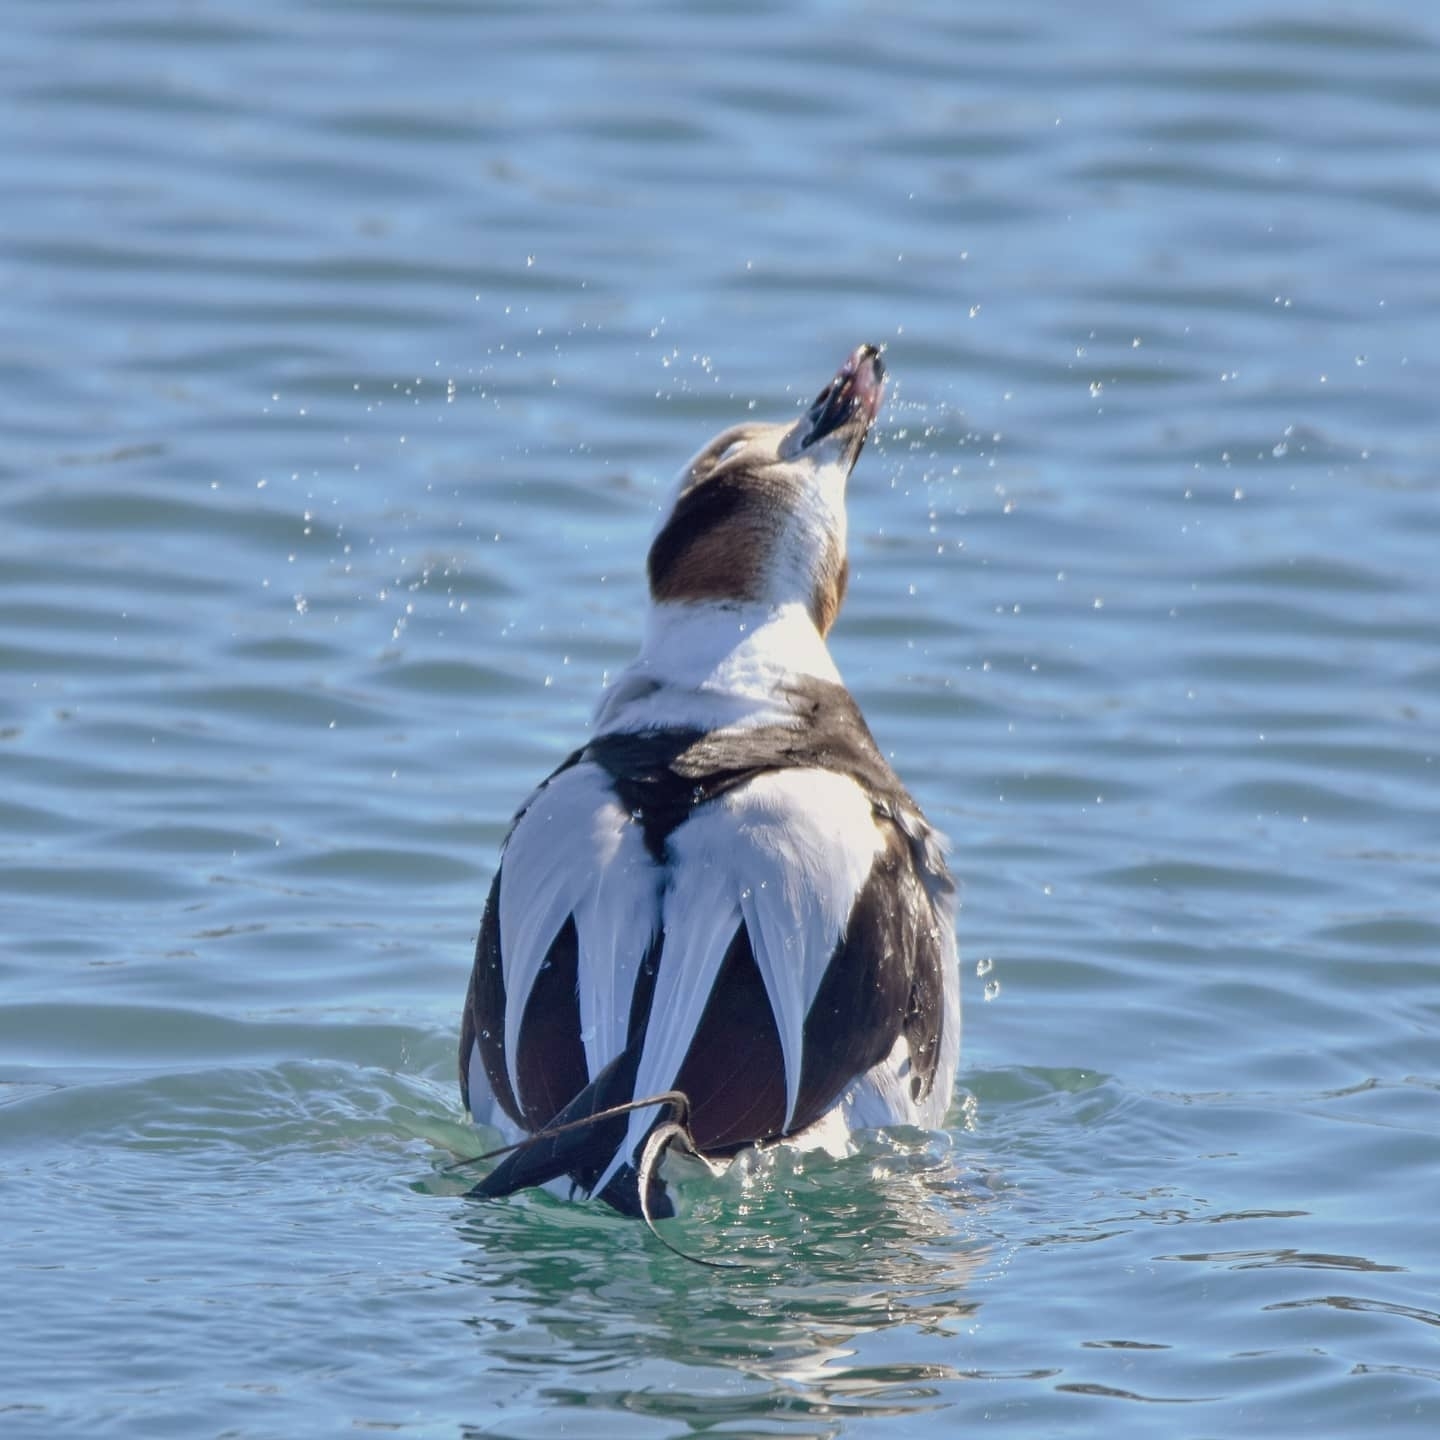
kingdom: Animalia
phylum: Chordata
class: Aves
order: Anseriformes
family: Anatidae
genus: Clangula
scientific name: Clangula hyemalis
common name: Long-tailed duck
